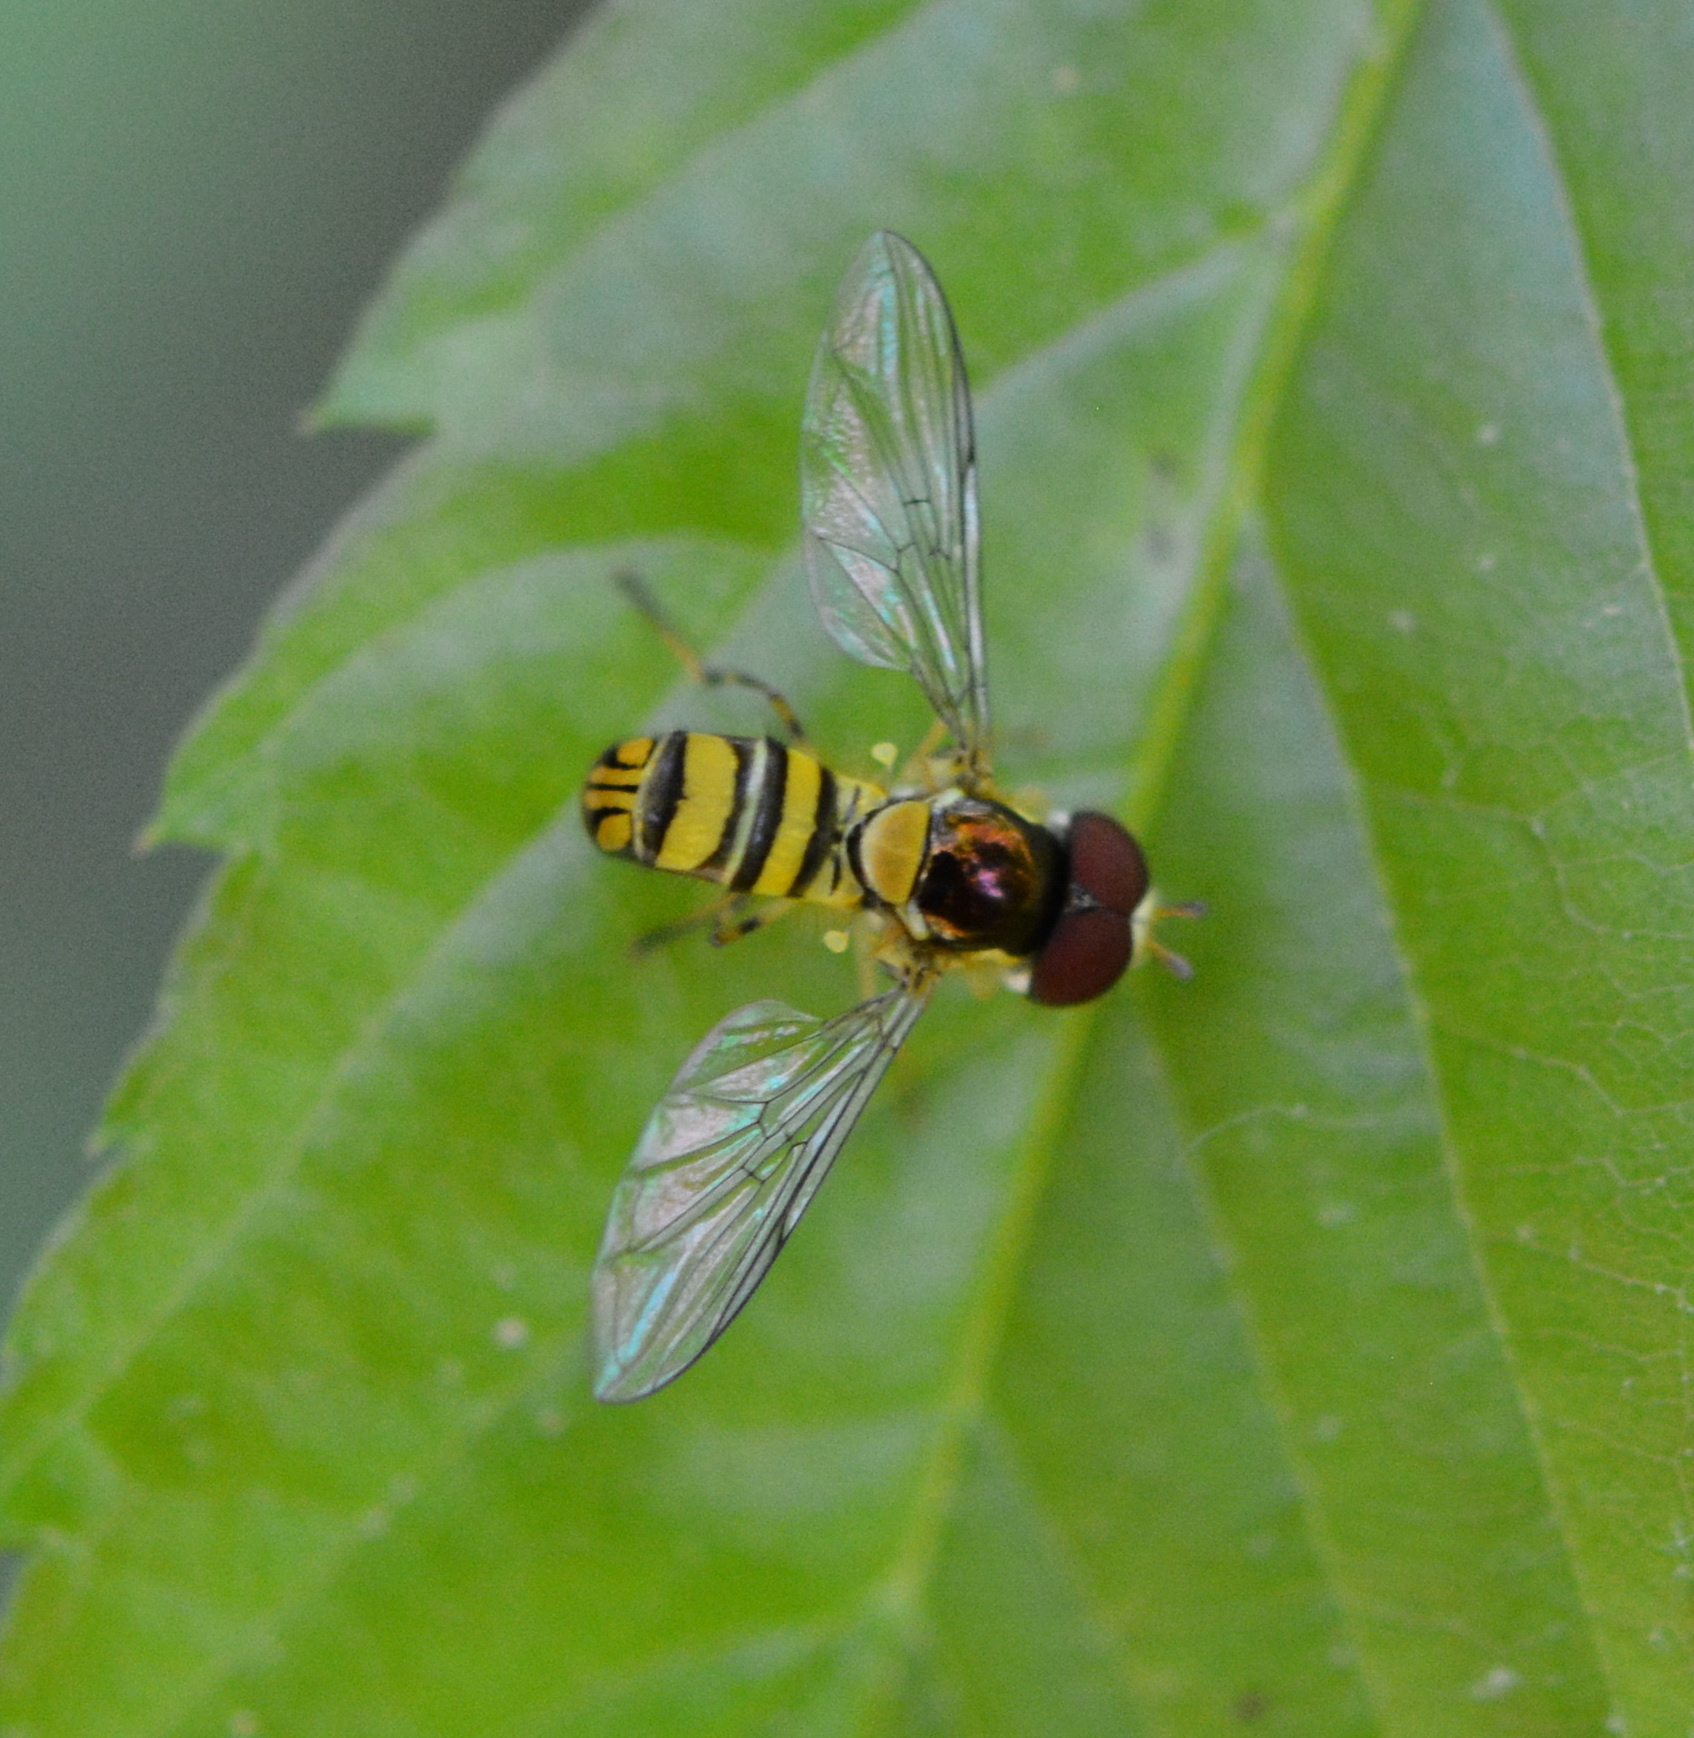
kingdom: Animalia
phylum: Arthropoda
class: Insecta
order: Diptera
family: Syrphidae
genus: Allograpta
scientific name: Allograpta obliqua
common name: Common oblique syrphid
